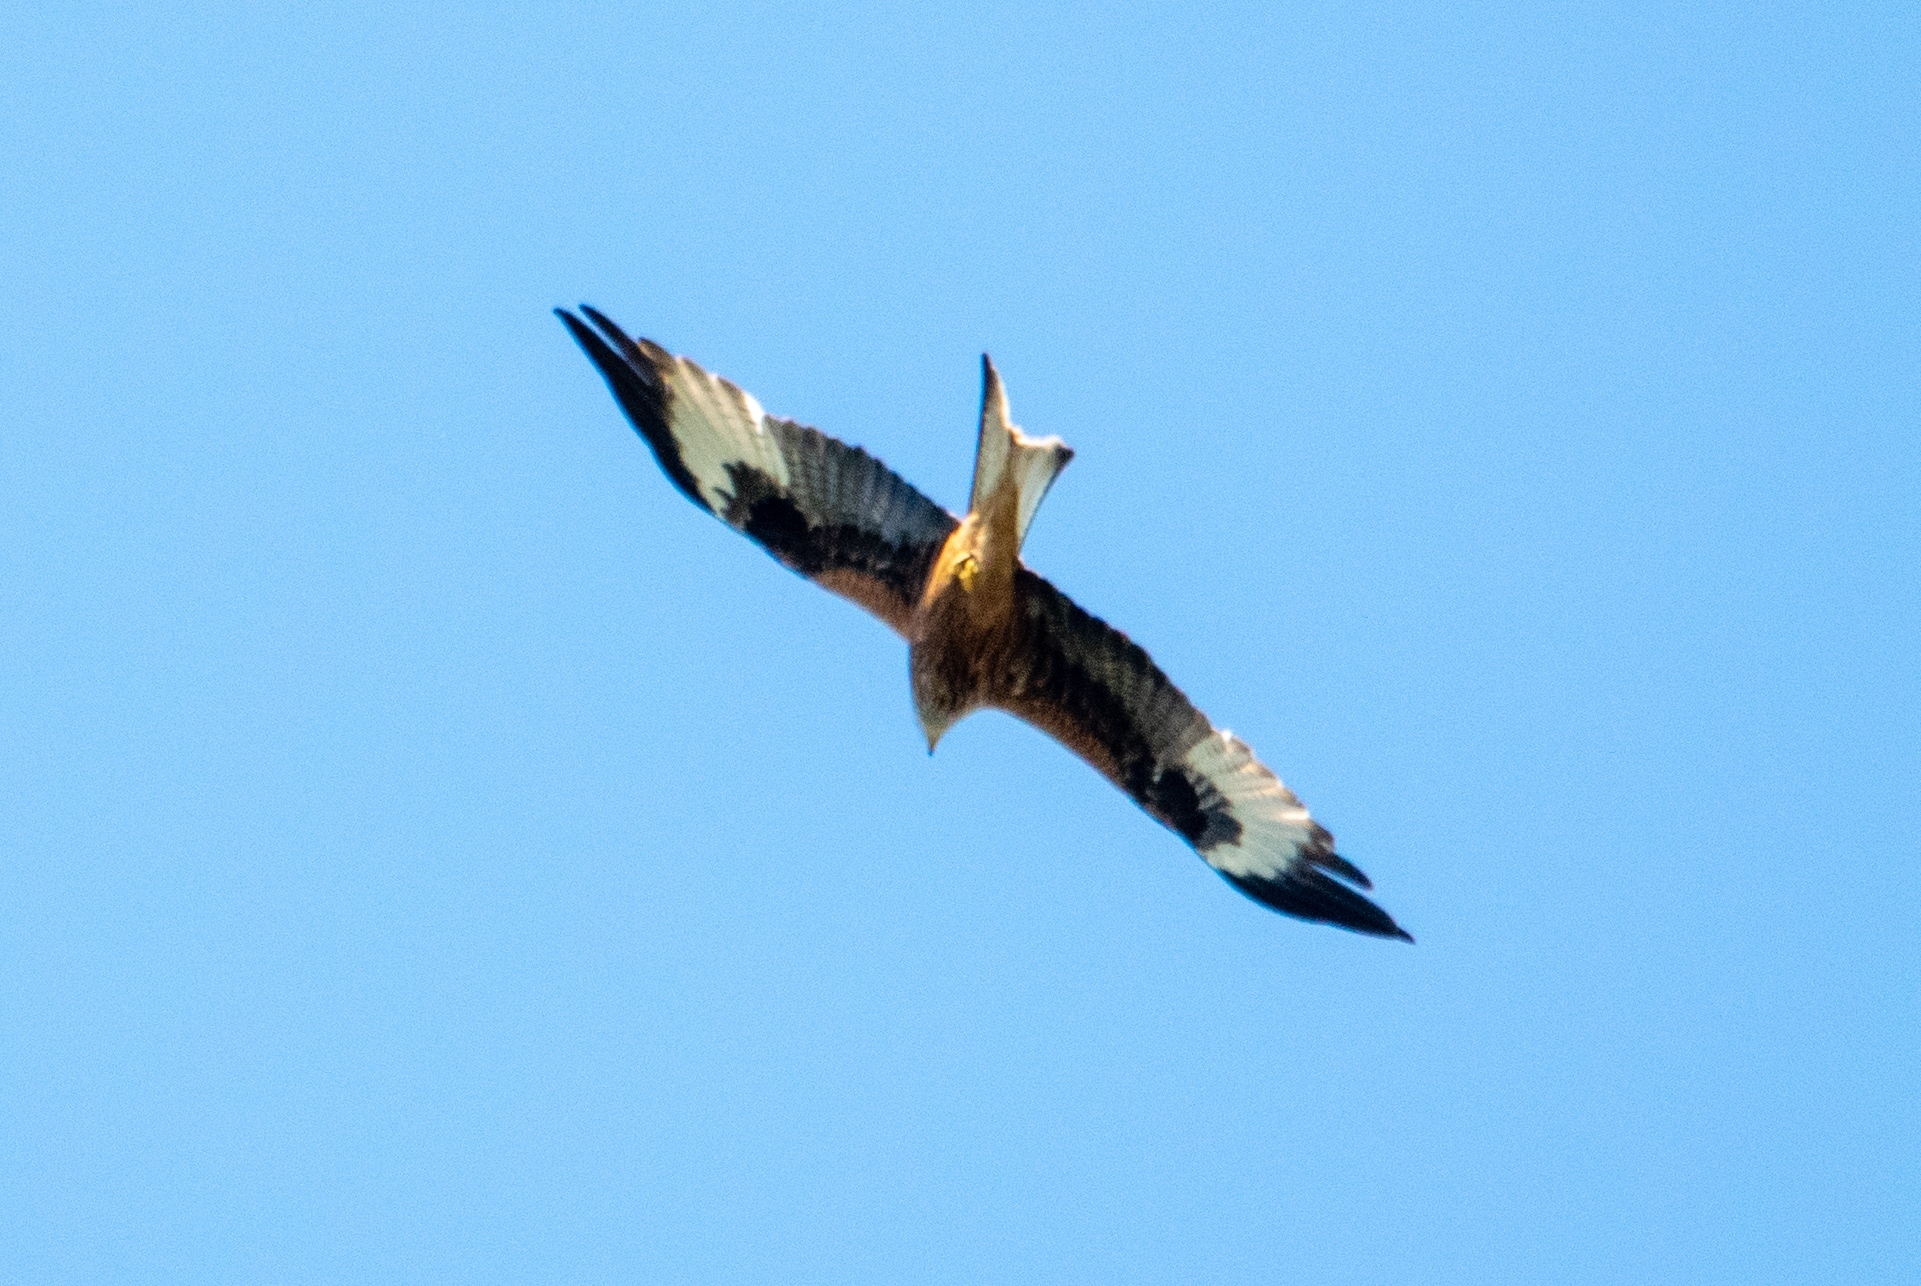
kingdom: Animalia
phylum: Chordata
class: Aves
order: Accipitriformes
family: Accipitridae
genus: Milvus
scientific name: Milvus milvus
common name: Red kite
